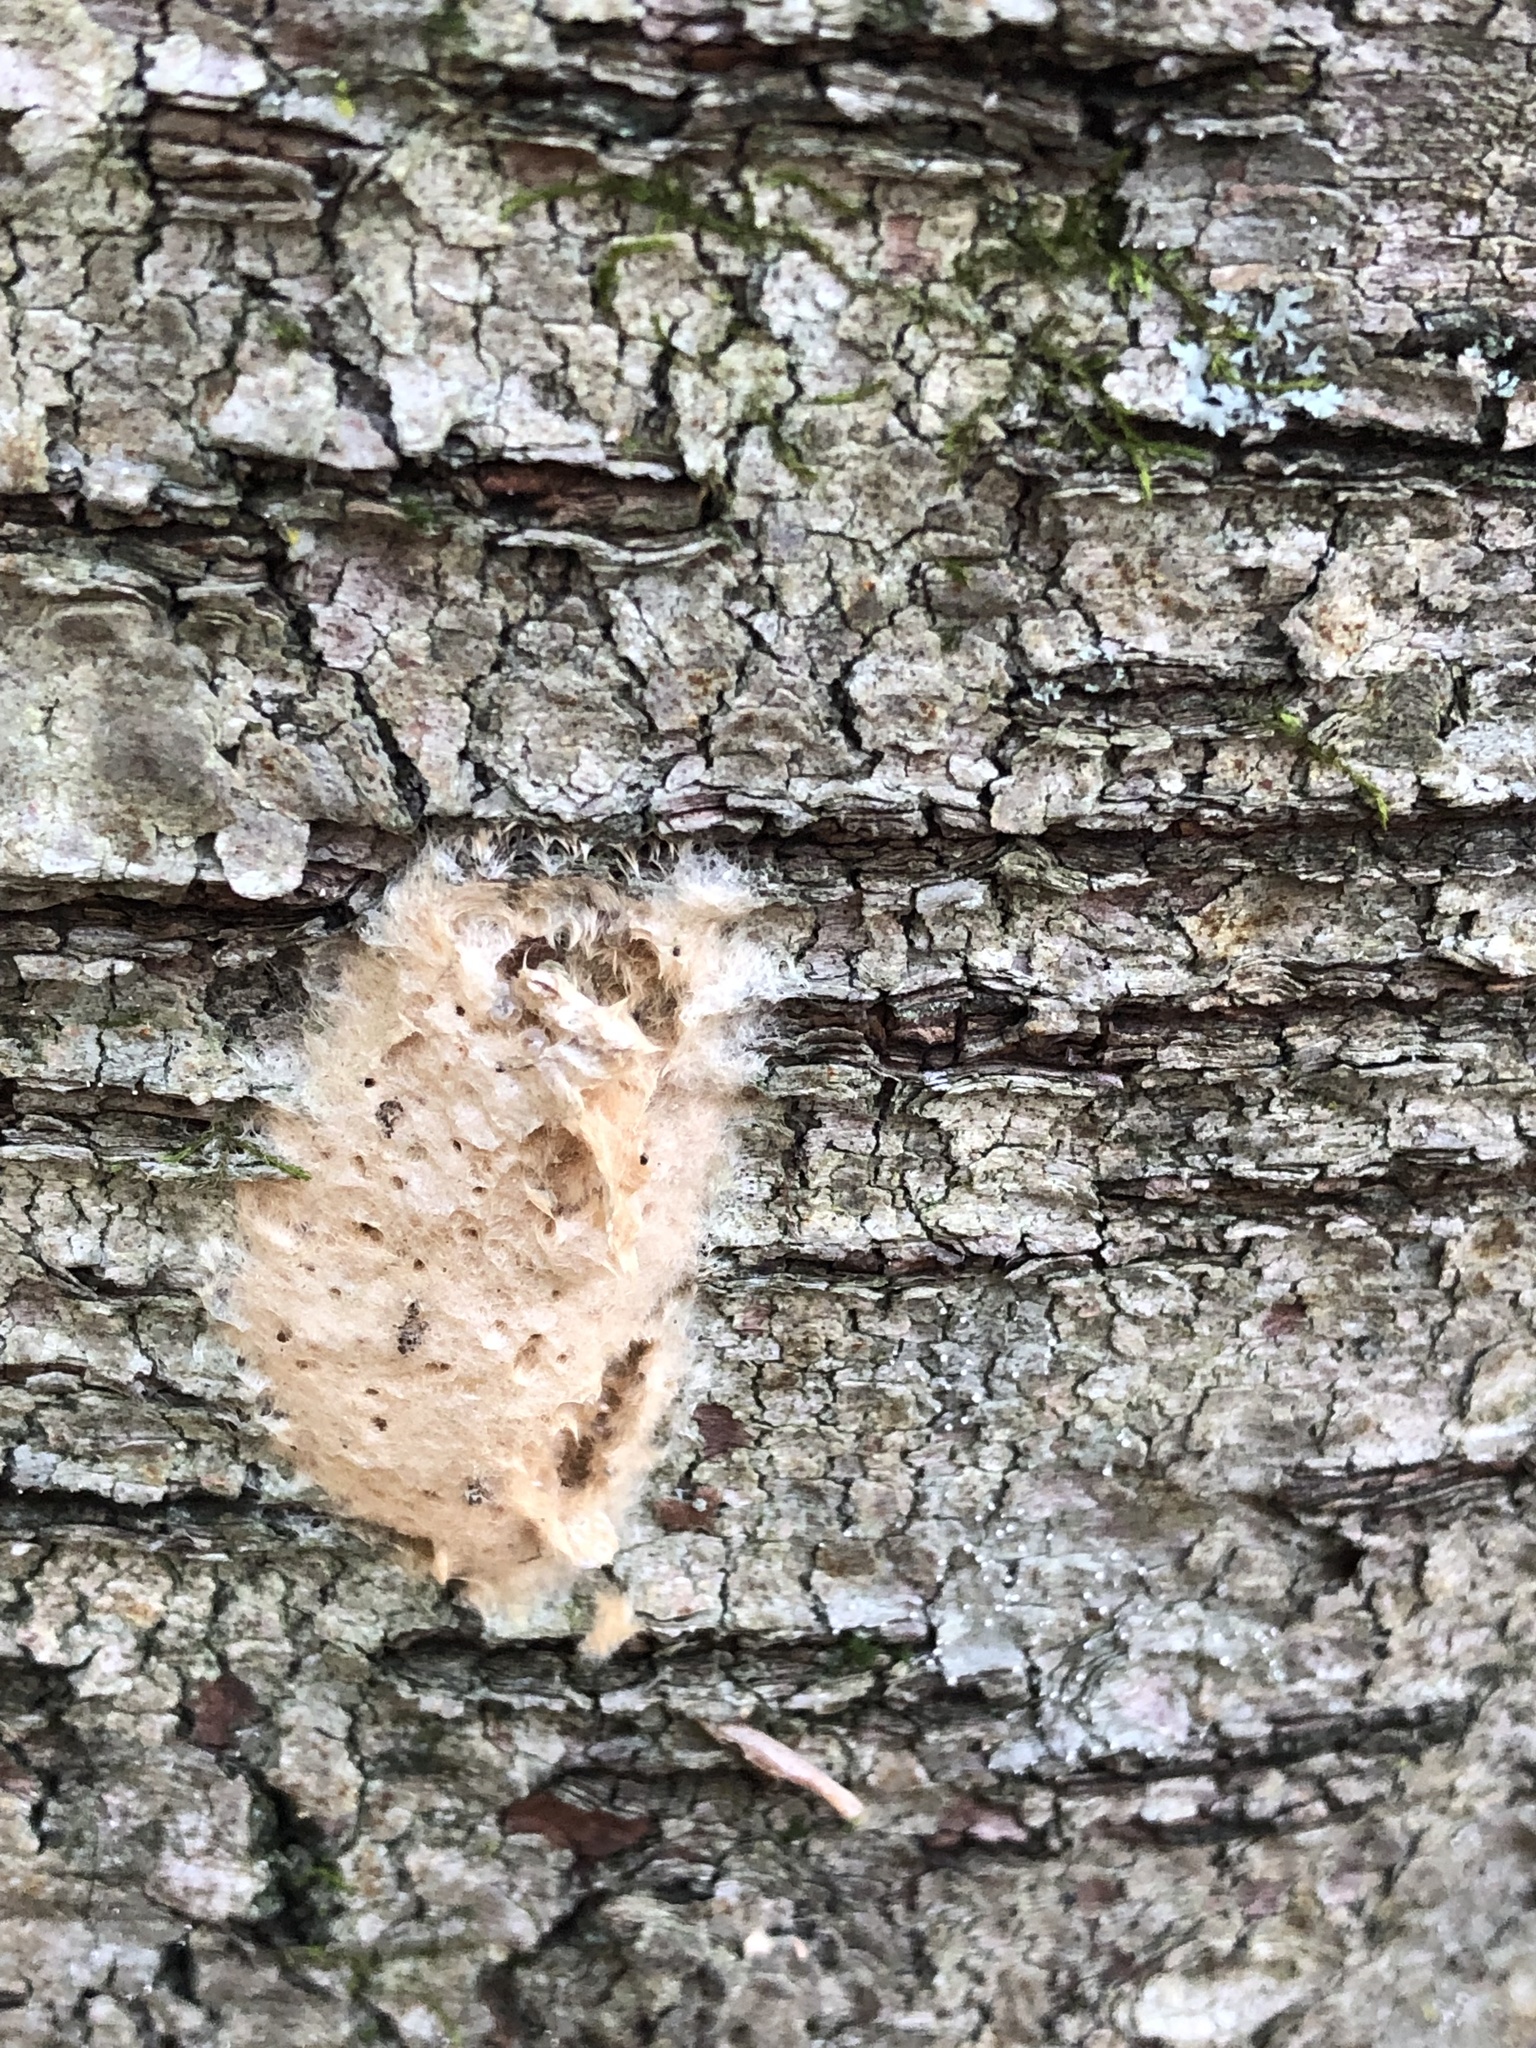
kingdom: Animalia
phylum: Arthropoda
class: Insecta
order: Lepidoptera
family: Erebidae
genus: Lymantria
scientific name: Lymantria dispar
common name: Gypsy moth
